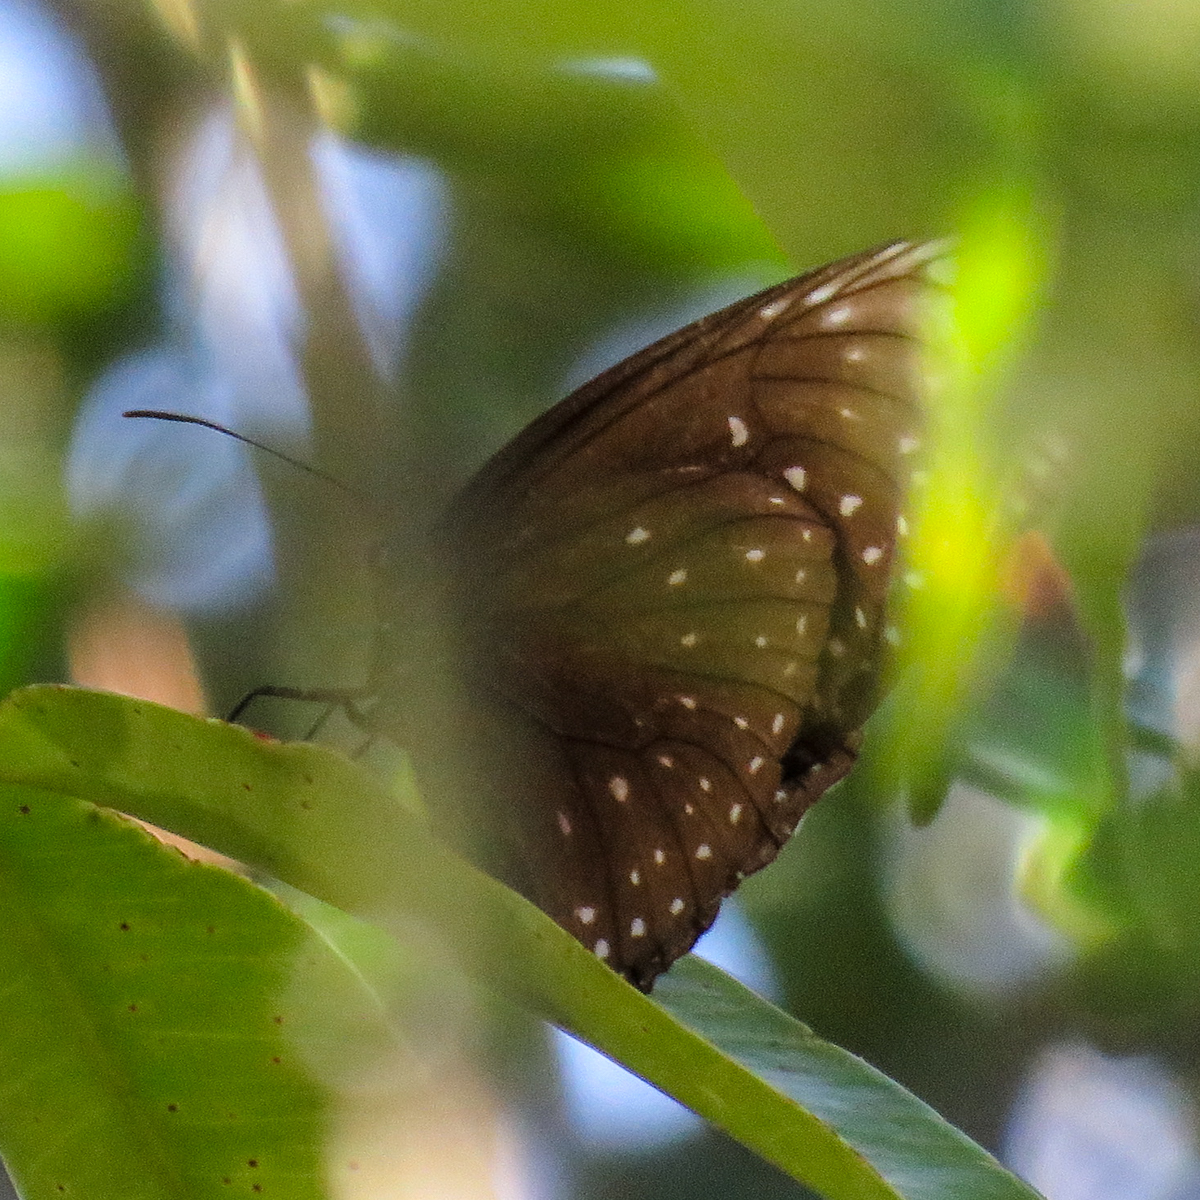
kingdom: Animalia
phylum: Arthropoda
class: Insecta
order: Lepidoptera
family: Nymphalidae
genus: Euploea
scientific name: Euploea phaenareta
